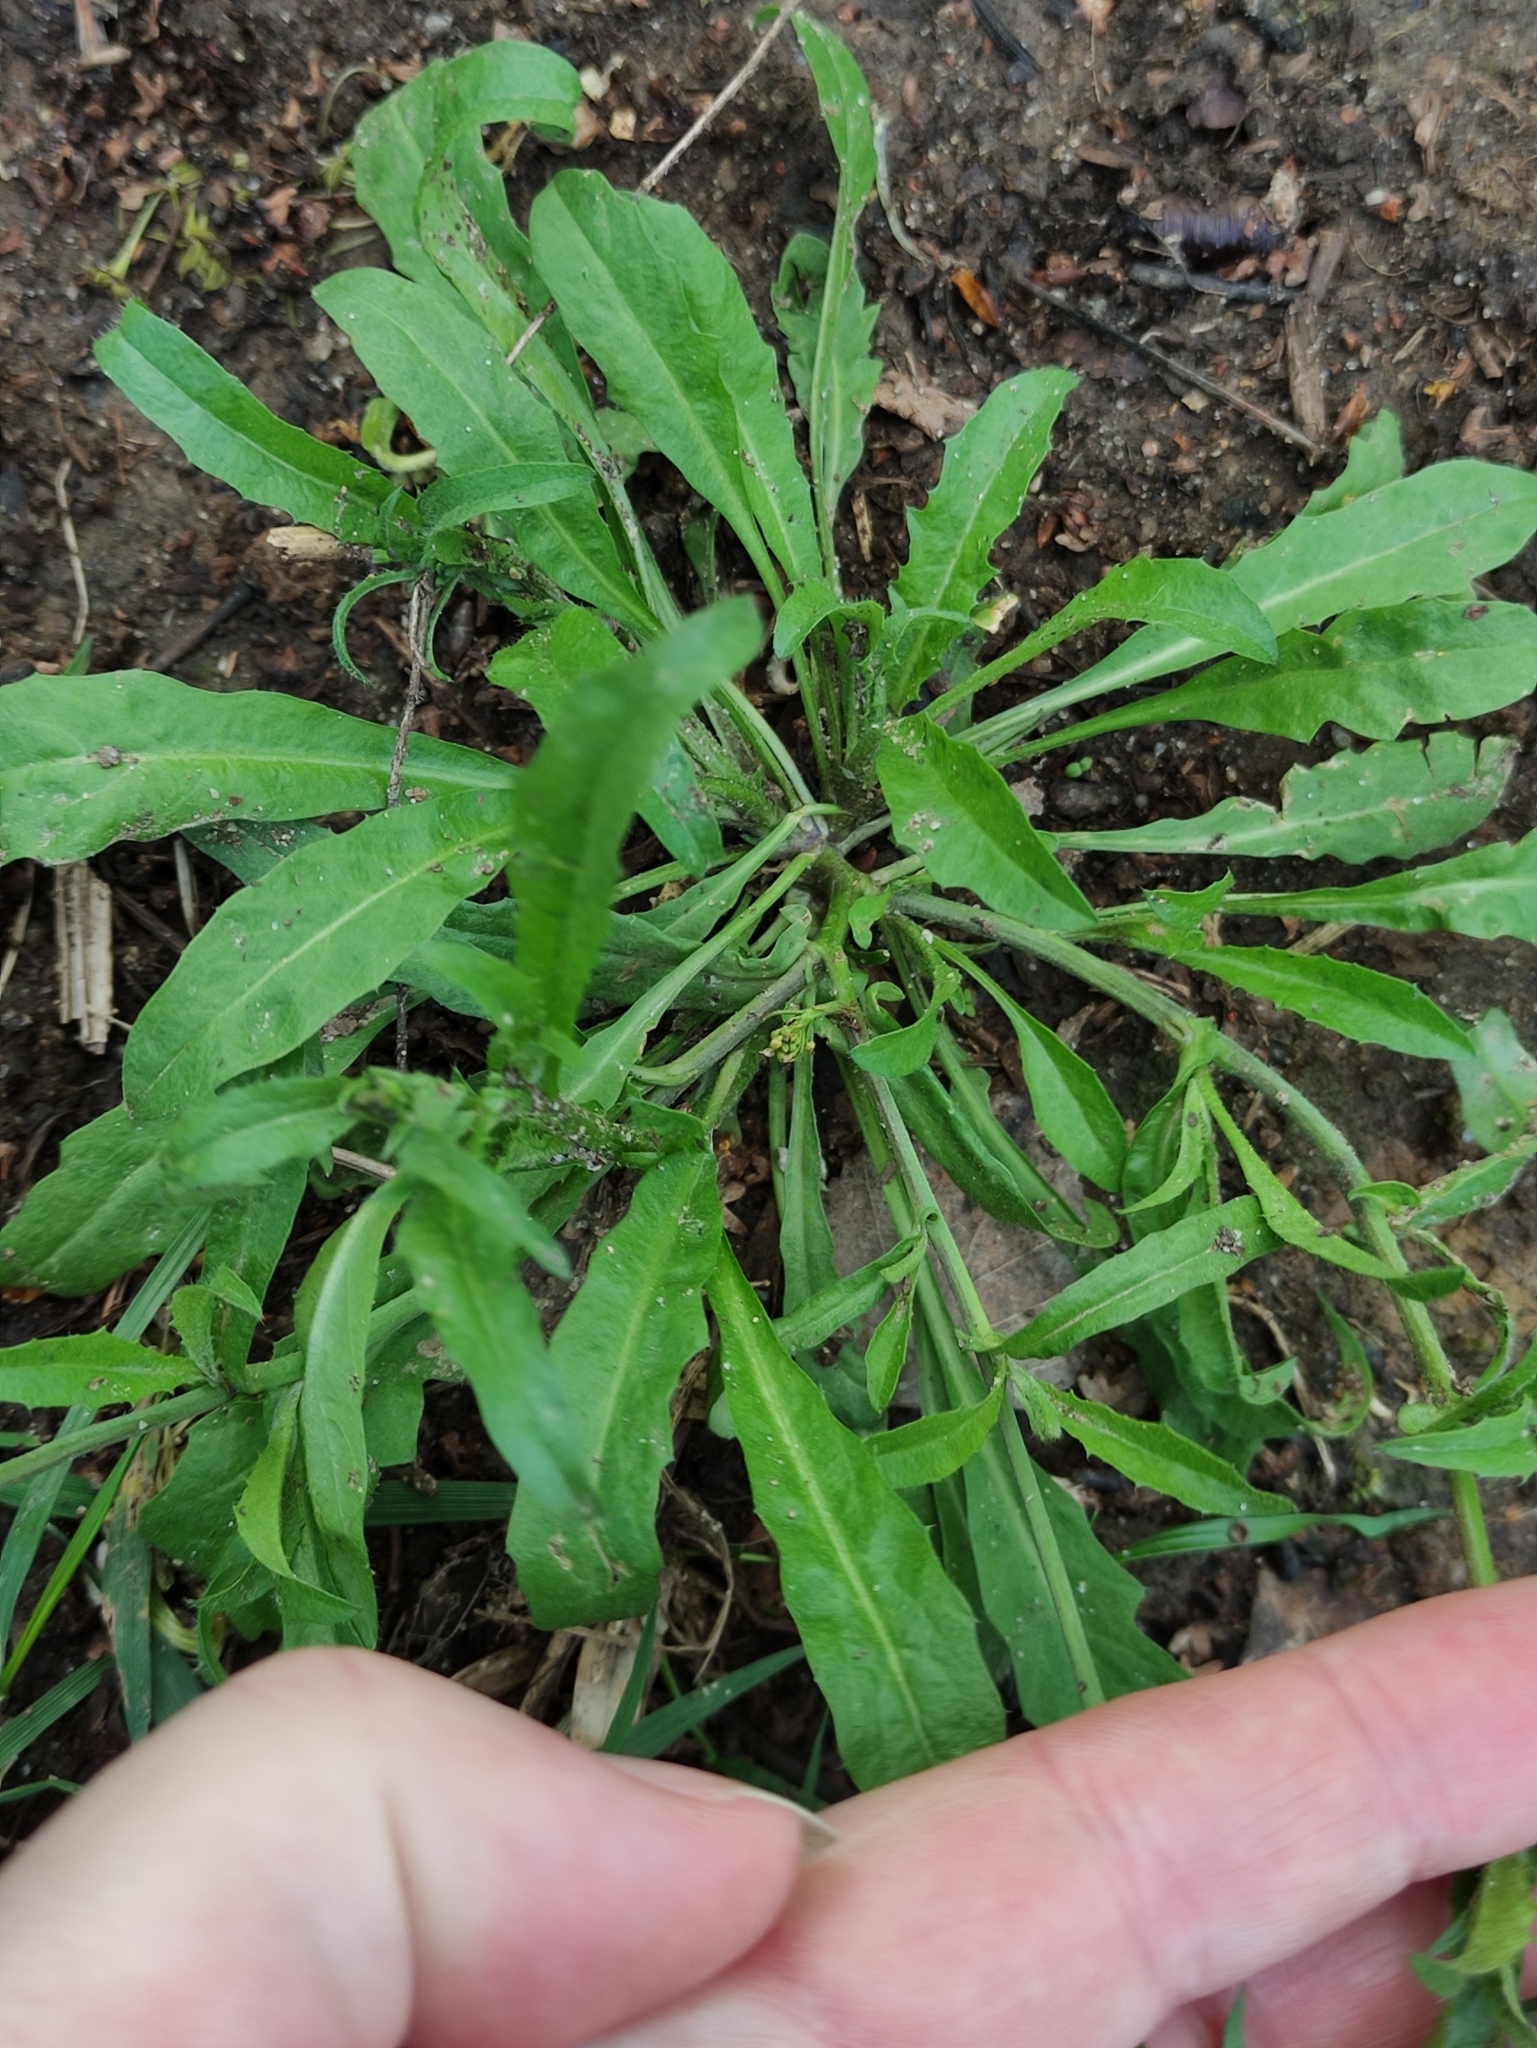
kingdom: Plantae
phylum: Tracheophyta
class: Magnoliopsida
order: Brassicales
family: Brassicaceae
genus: Capsella
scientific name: Capsella bursa-pastoris
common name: Shepherd's purse
